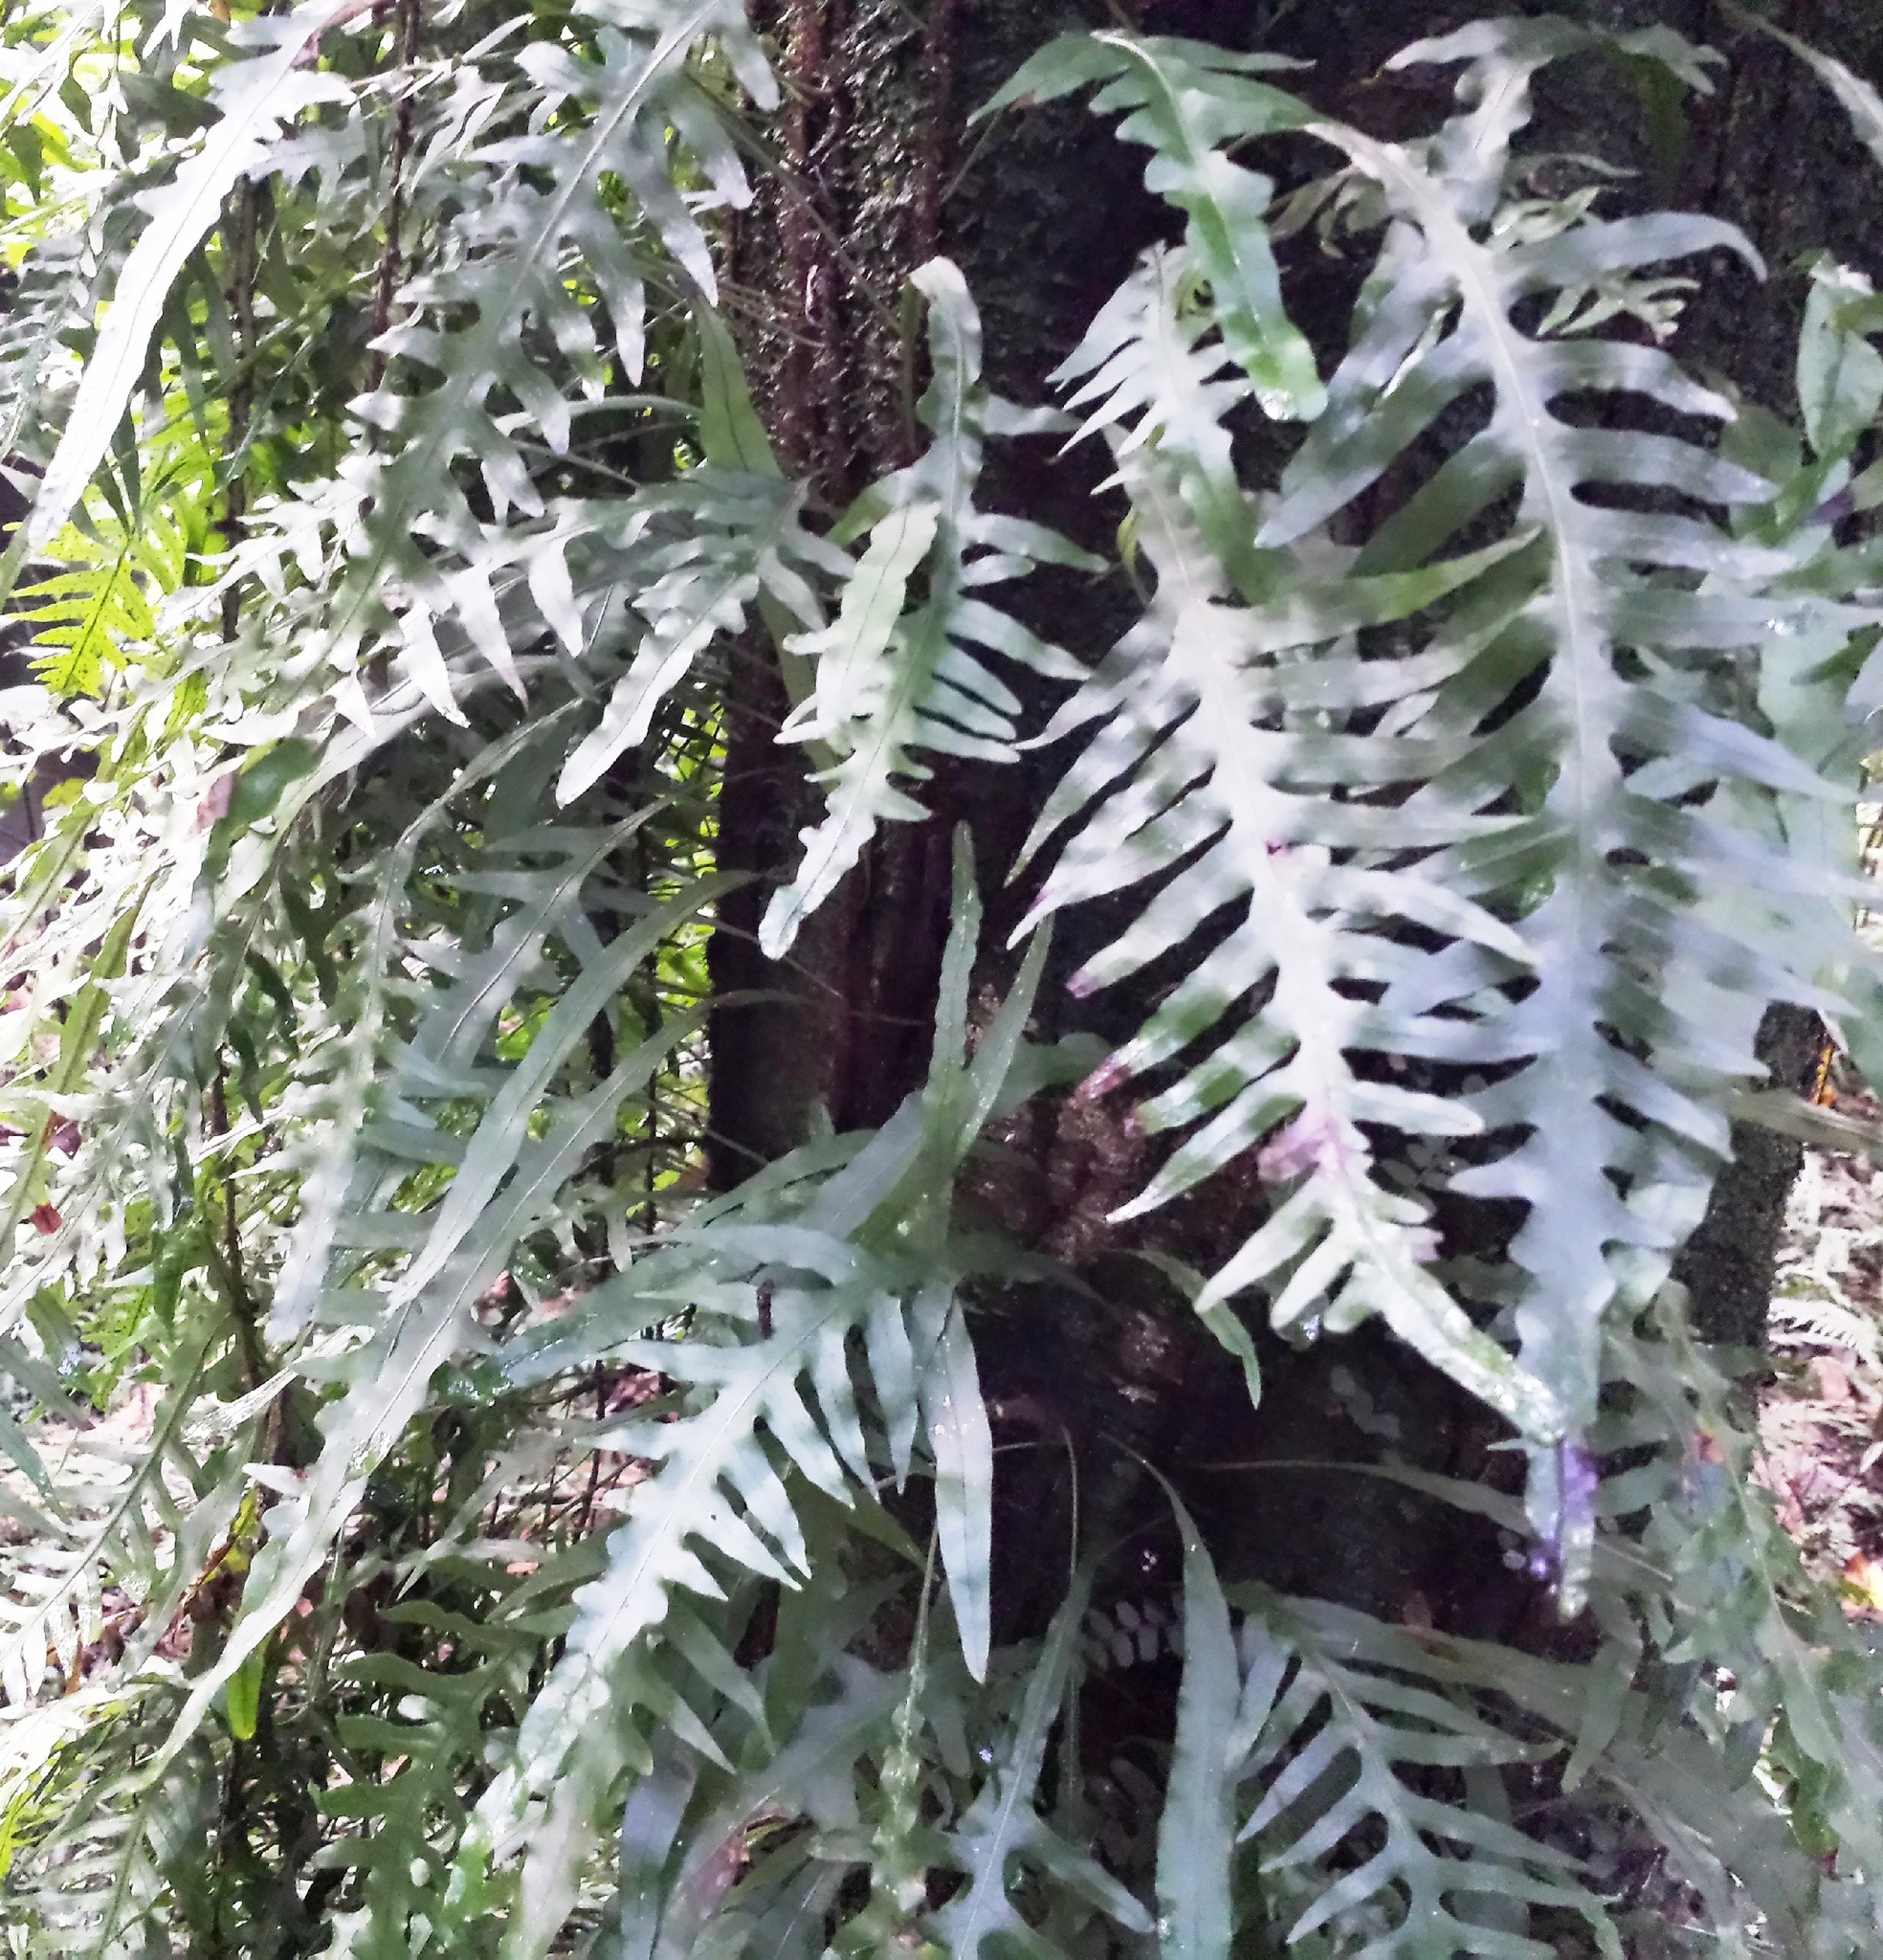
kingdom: Plantae
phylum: Tracheophyta
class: Polypodiopsida
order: Polypodiales
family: Polypodiaceae
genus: Lecanopteris
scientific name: Lecanopteris scandens
